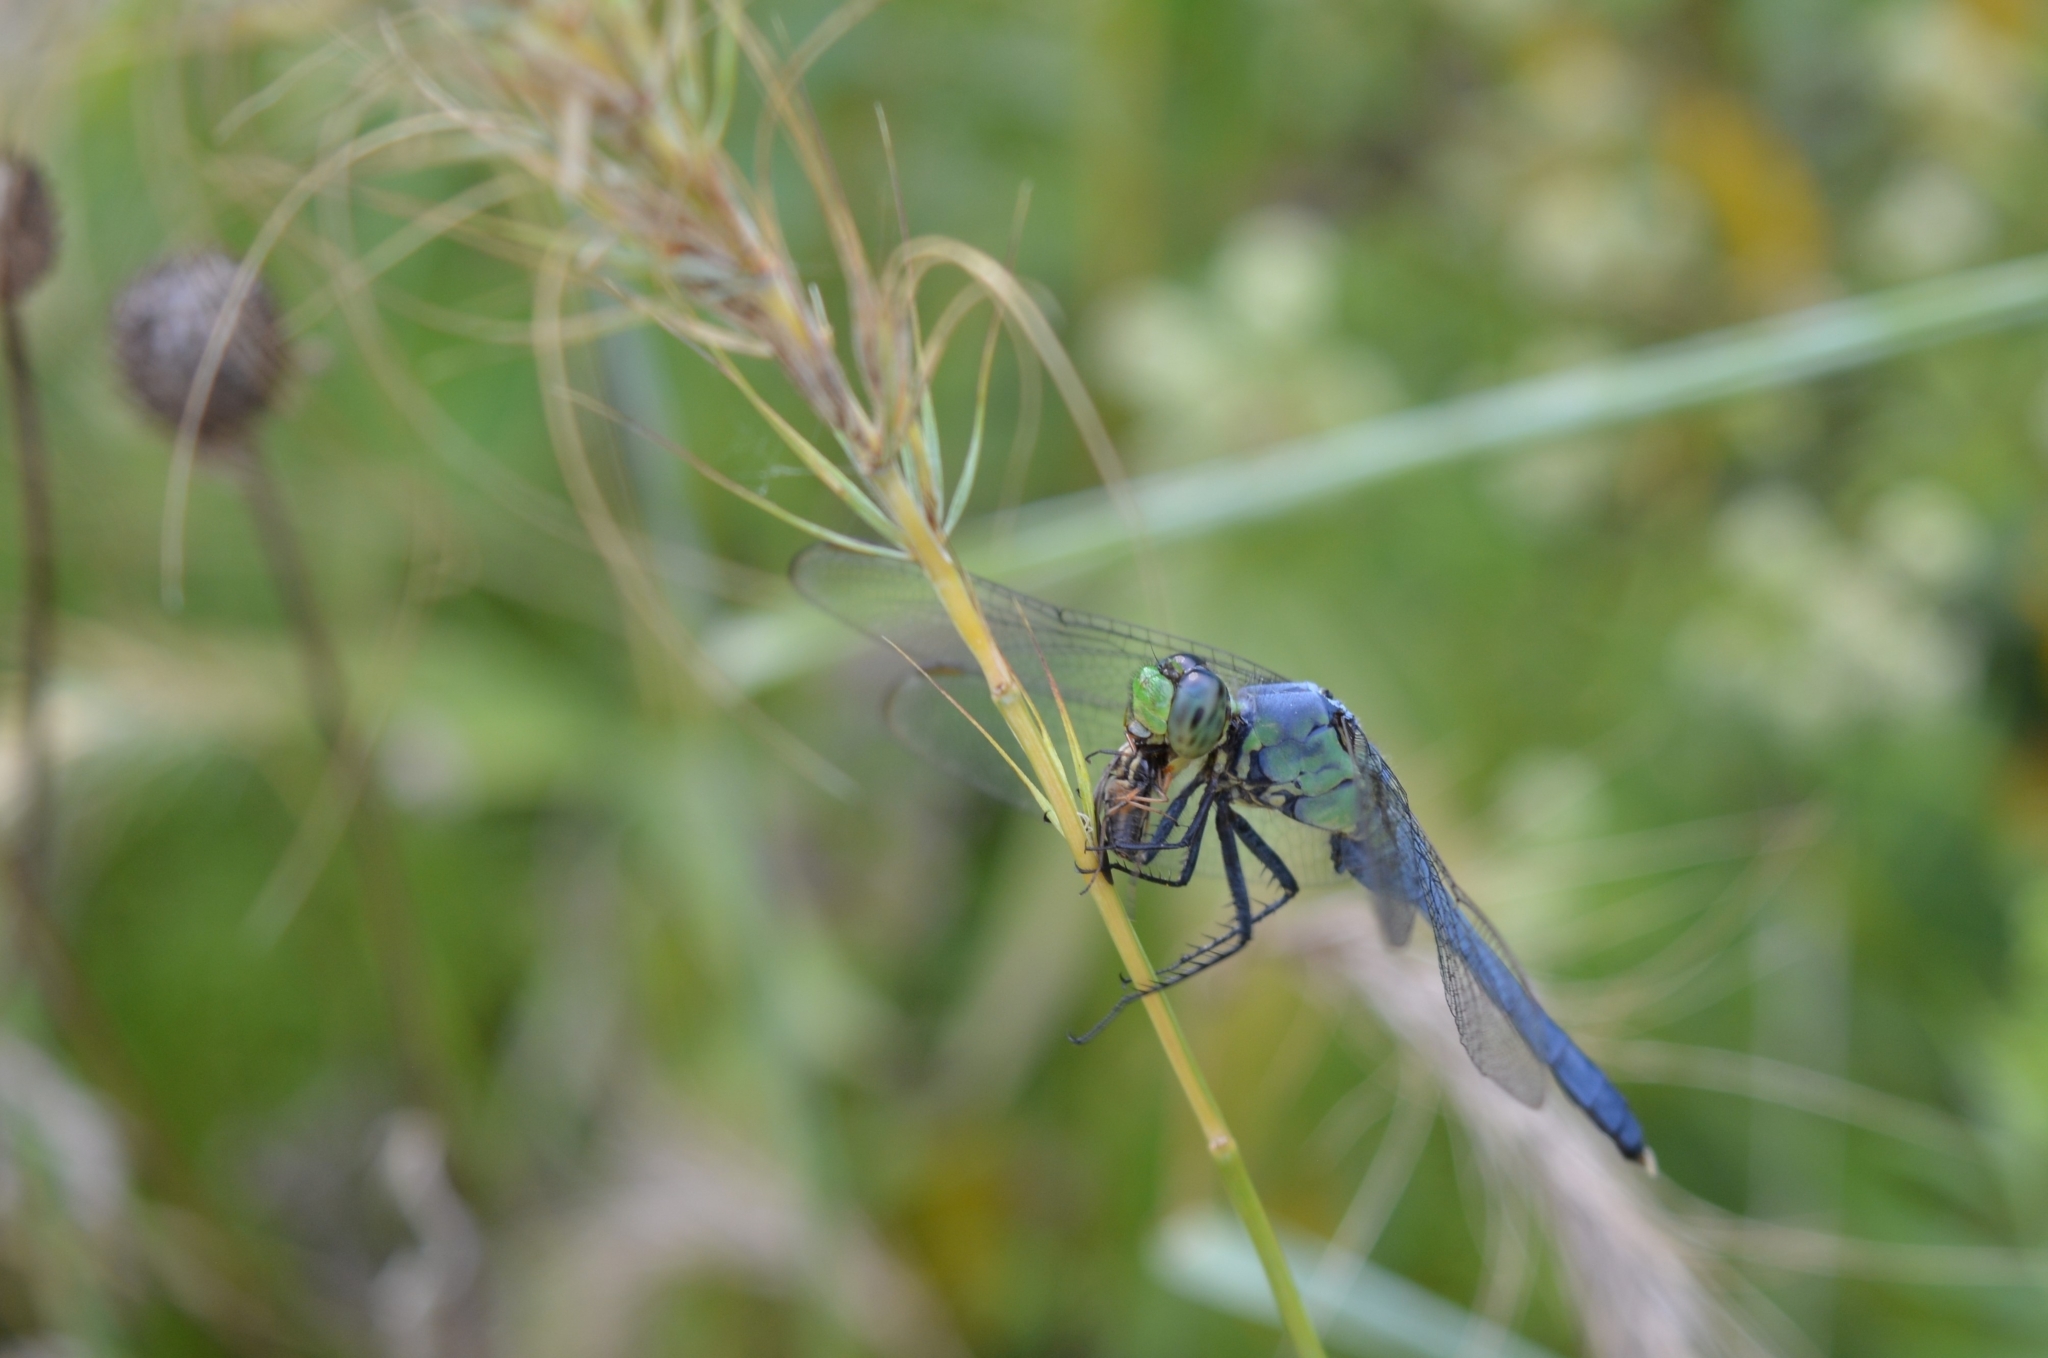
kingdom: Animalia
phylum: Arthropoda
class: Insecta
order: Odonata
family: Libellulidae
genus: Erythemis
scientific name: Erythemis simplicicollis
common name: Eastern pondhawk
